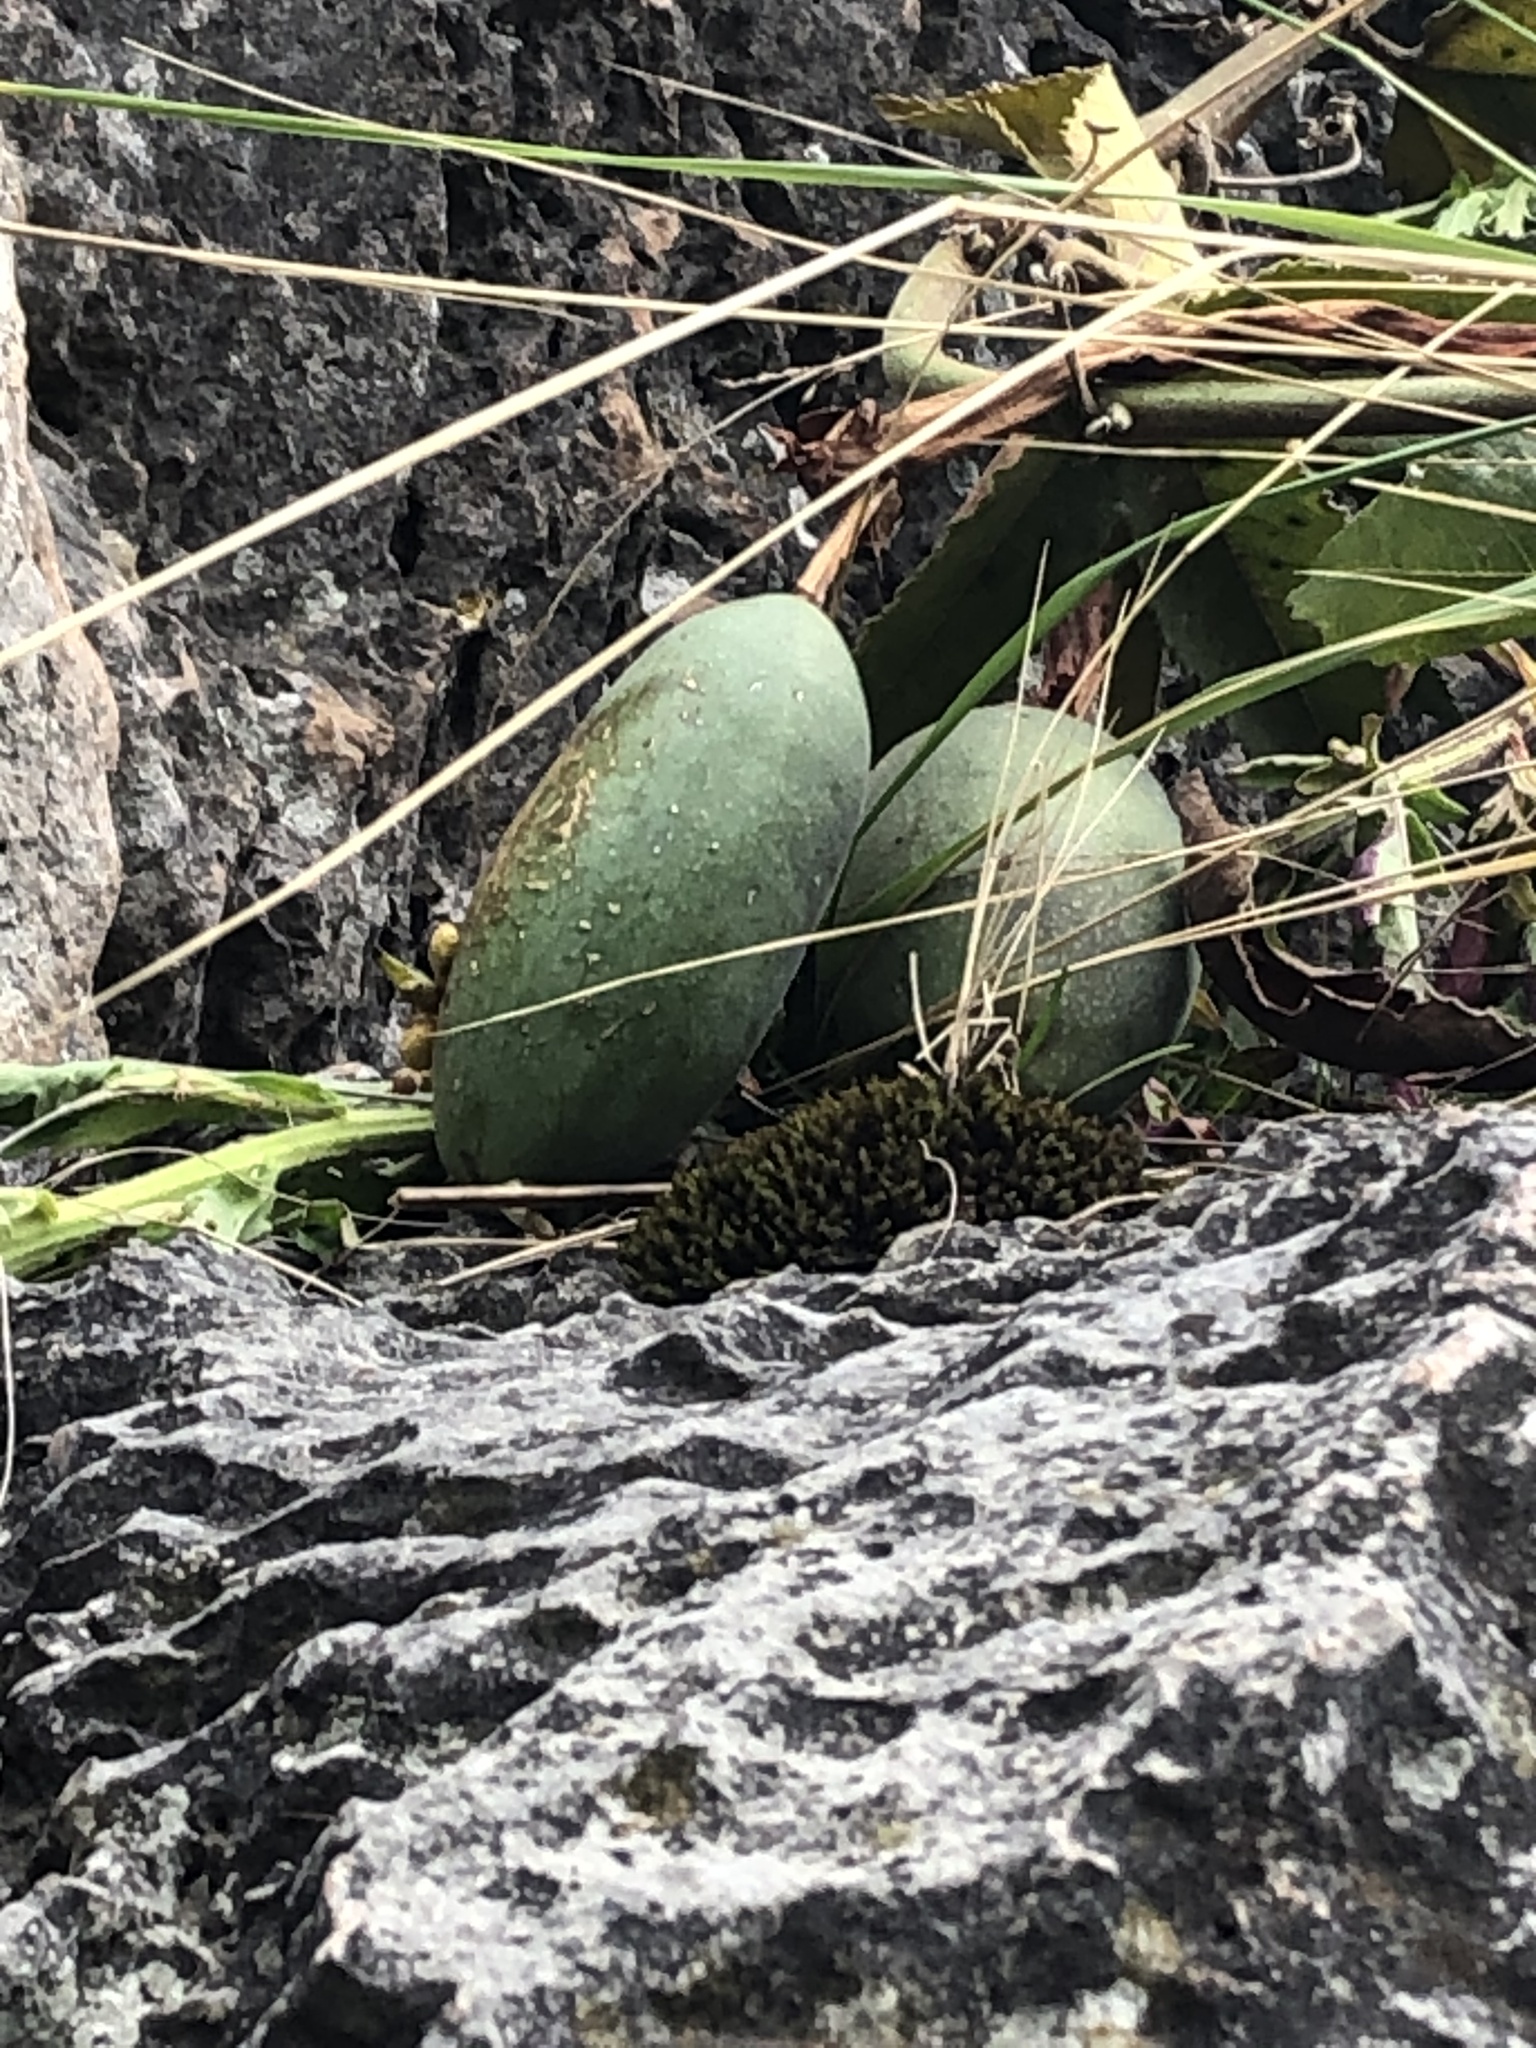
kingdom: Plantae
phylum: Tracheophyta
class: Magnoliopsida
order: Malpighiales
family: Passifloraceae
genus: Passiflora
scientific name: Passiflora tripartita
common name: Banana poka
